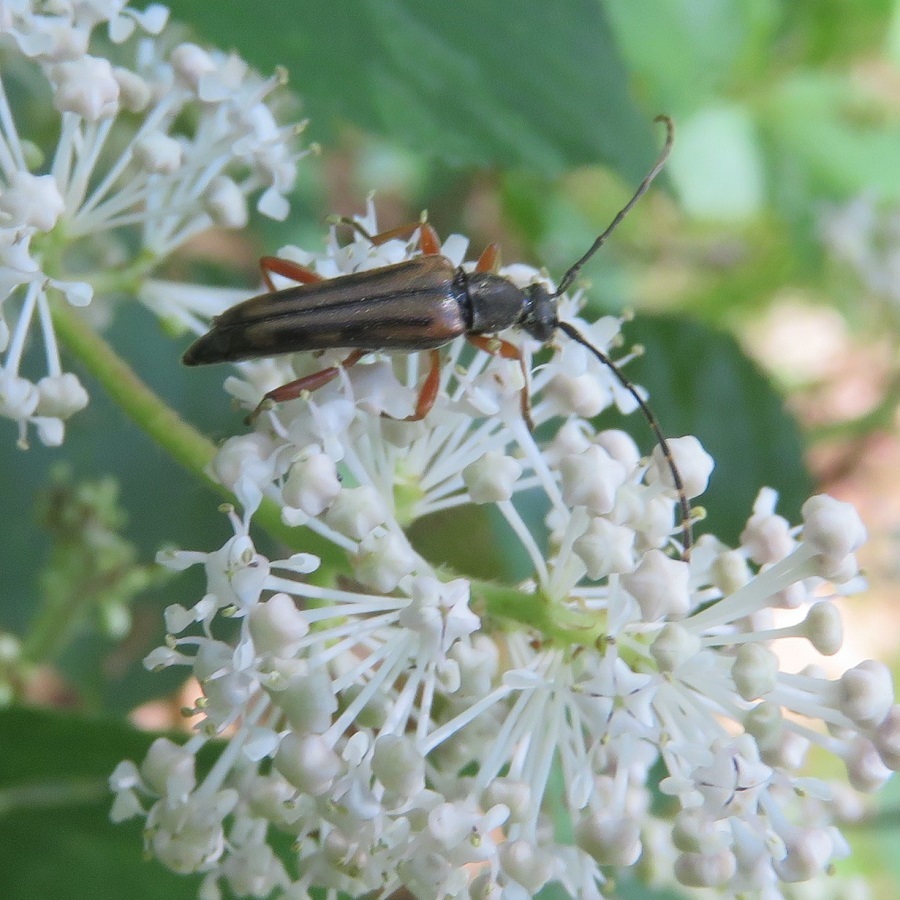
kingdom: Animalia
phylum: Arthropoda
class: Insecta
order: Coleoptera
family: Cerambycidae
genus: Analeptura
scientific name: Analeptura lineola
